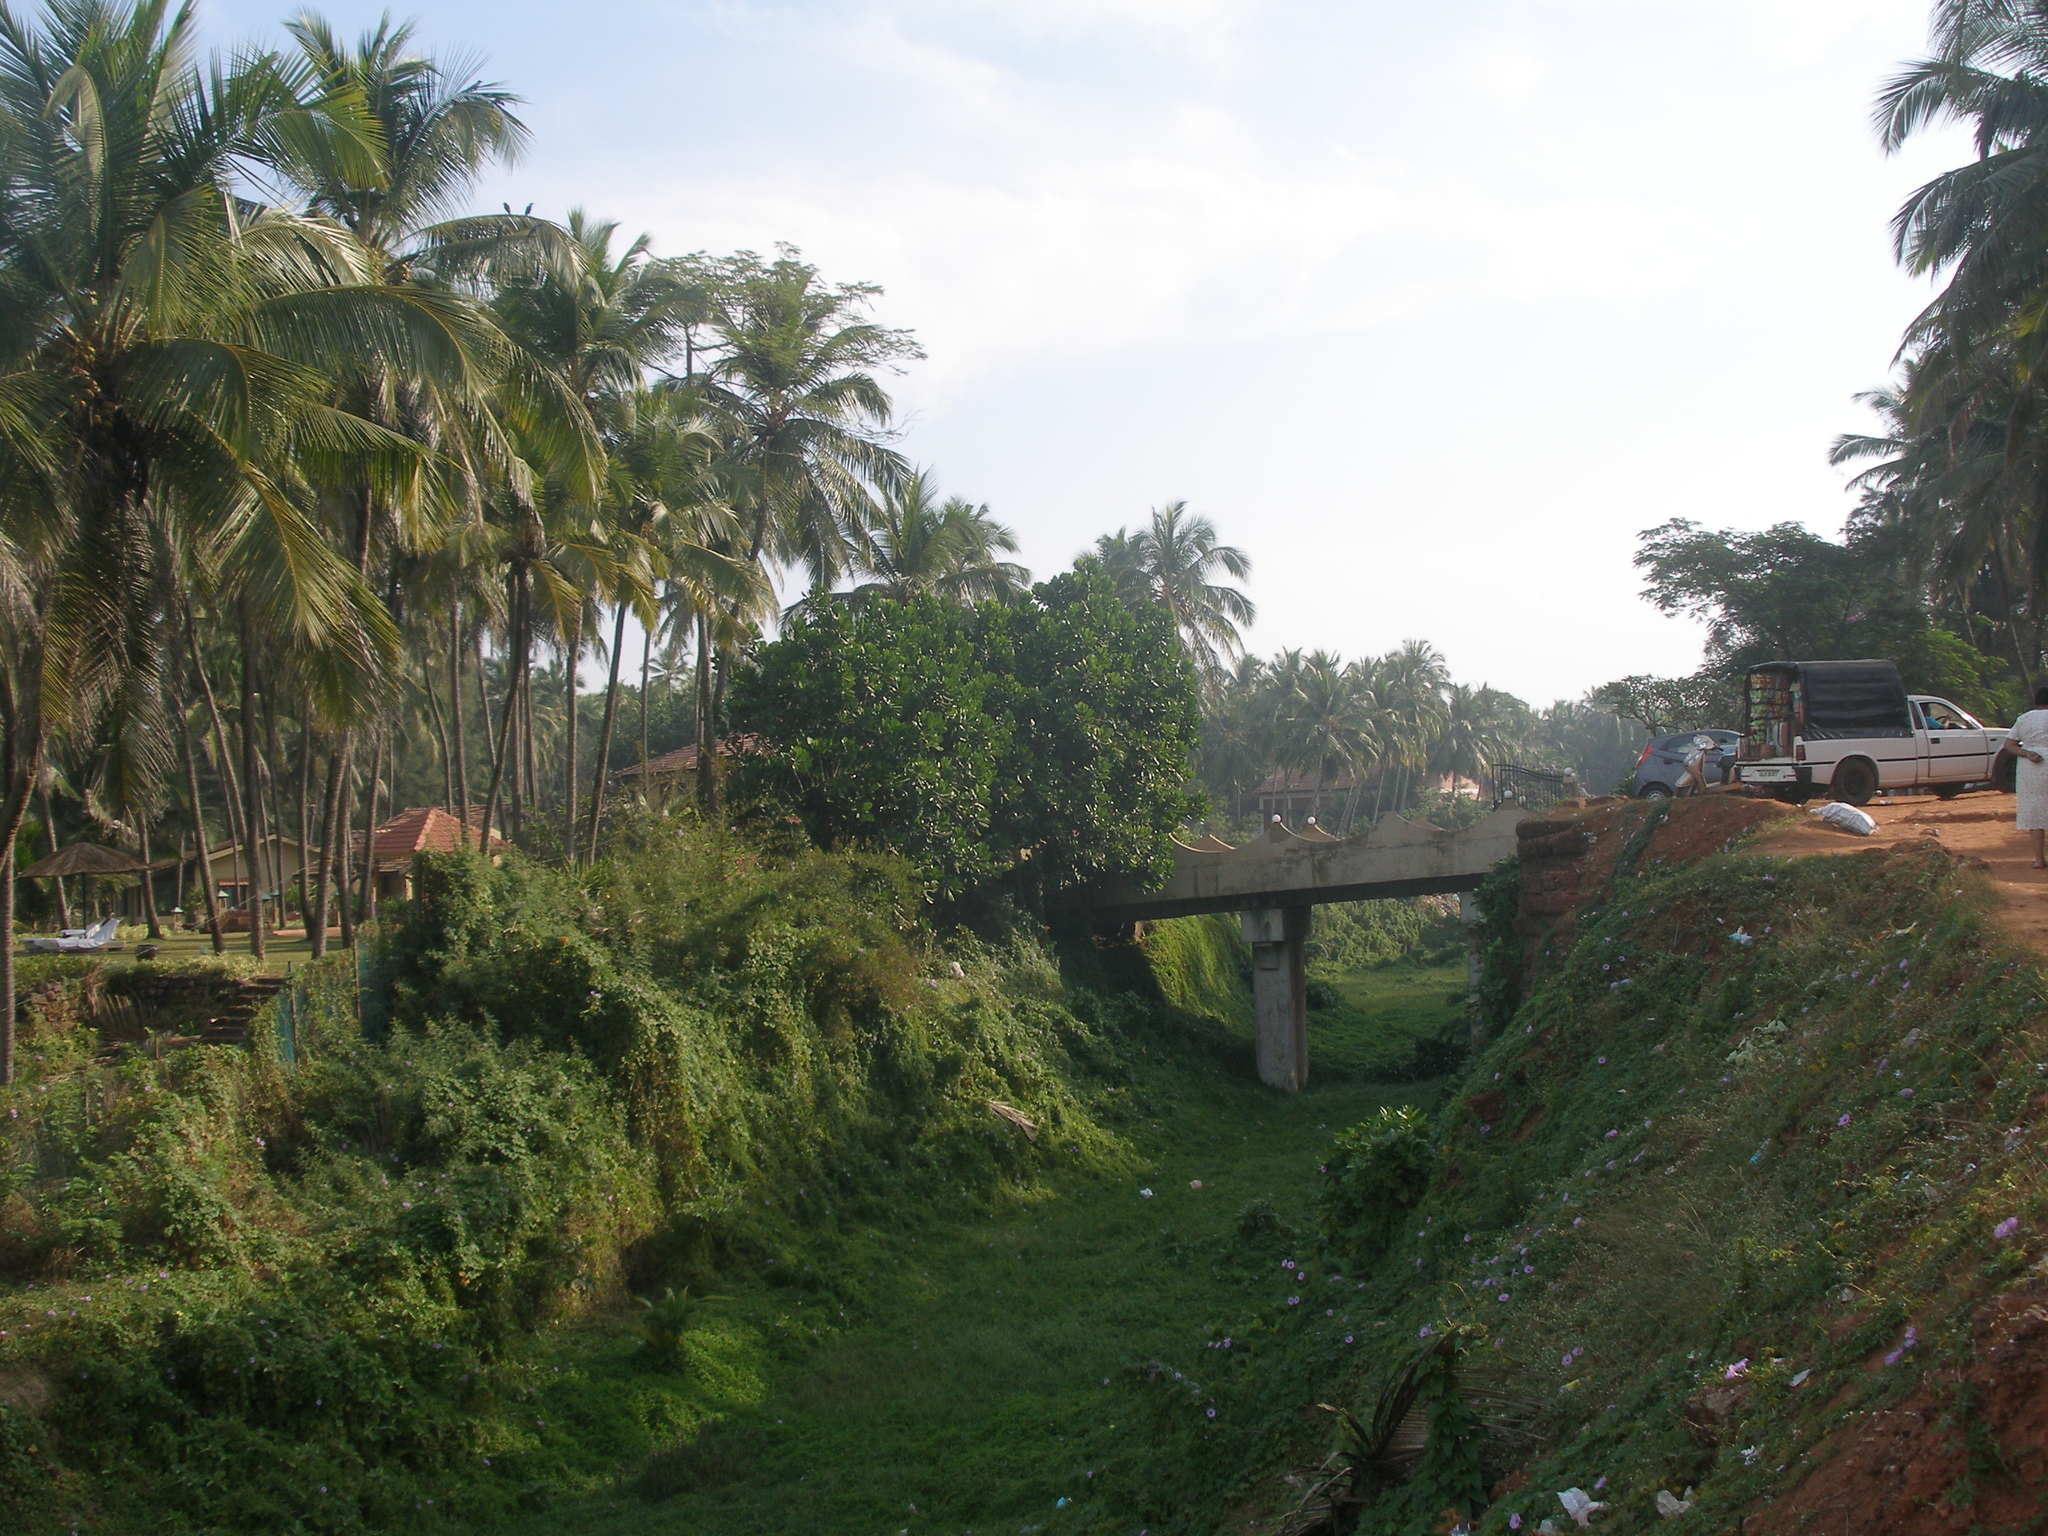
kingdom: Plantae
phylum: Tracheophyta
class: Magnoliopsida
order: Solanales
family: Convolvulaceae
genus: Ipomoea
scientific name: Ipomoea cairica
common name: Mile a minute vine
